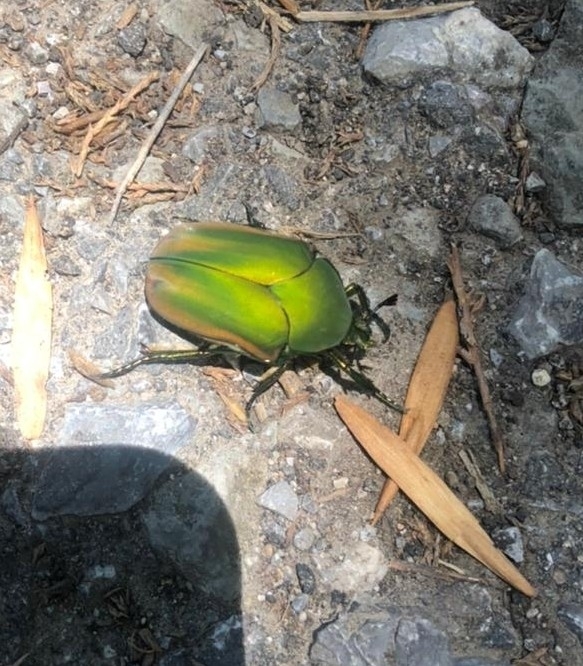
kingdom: Animalia
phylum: Arthropoda
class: Insecta
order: Coleoptera
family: Scarabaeidae
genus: Cotinis
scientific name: Cotinis mutabilis
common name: Figeater beetle
